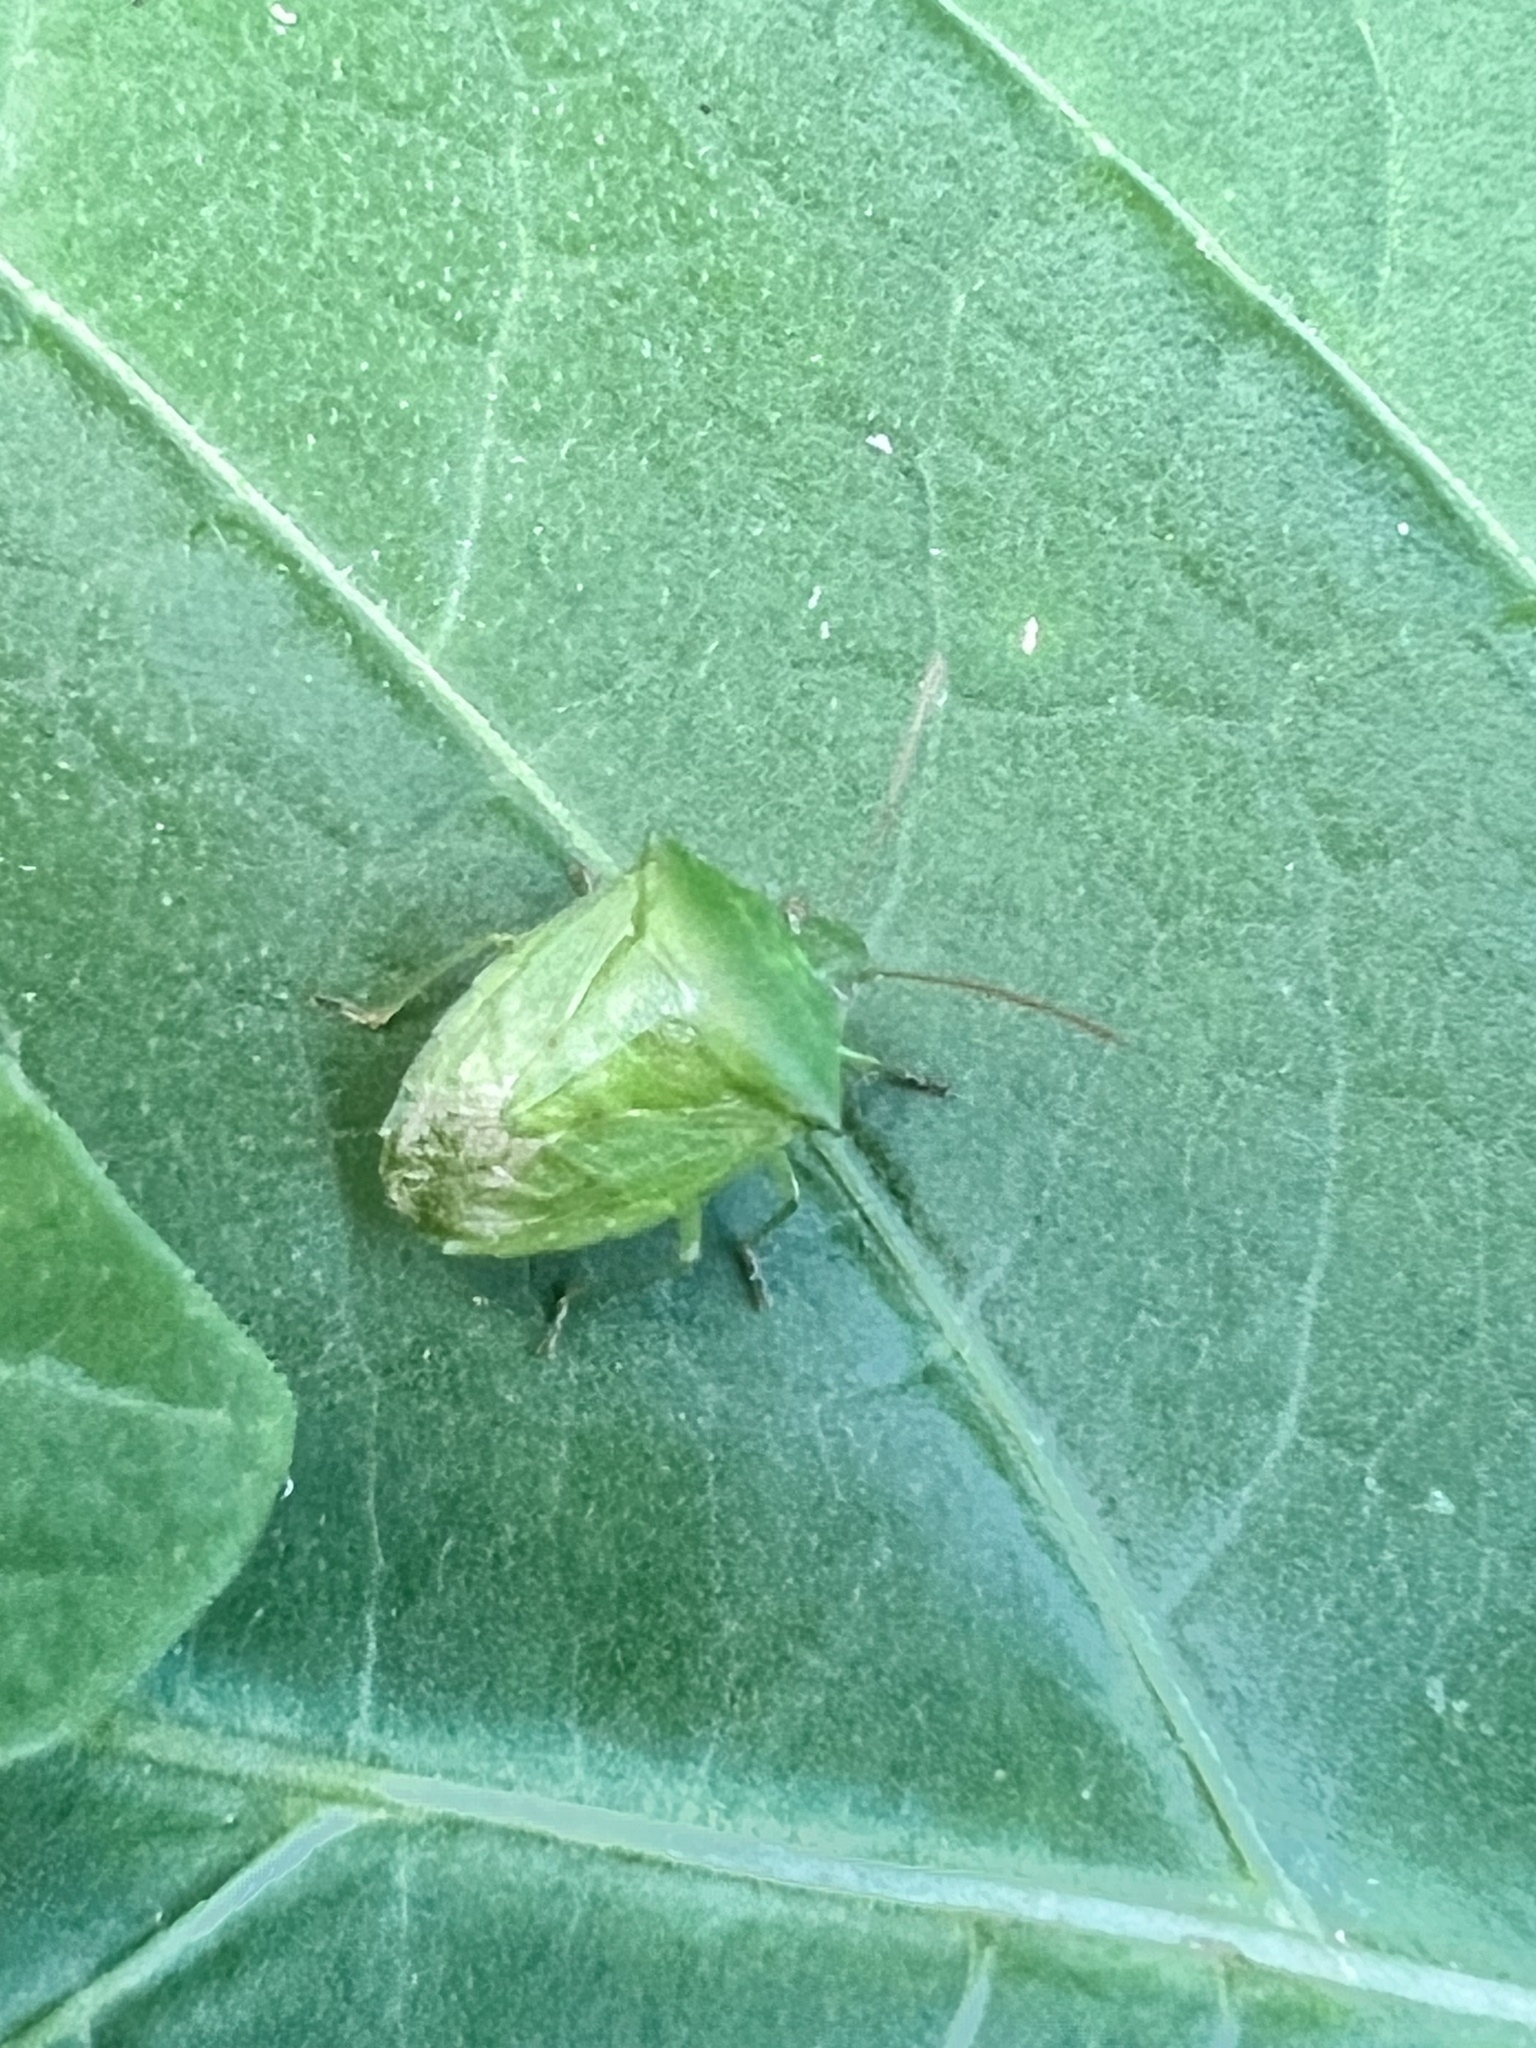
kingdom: Animalia
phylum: Arthropoda
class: Insecta
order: Hemiptera
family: Pentatomidae
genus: Cuspicona
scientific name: Cuspicona simplex
